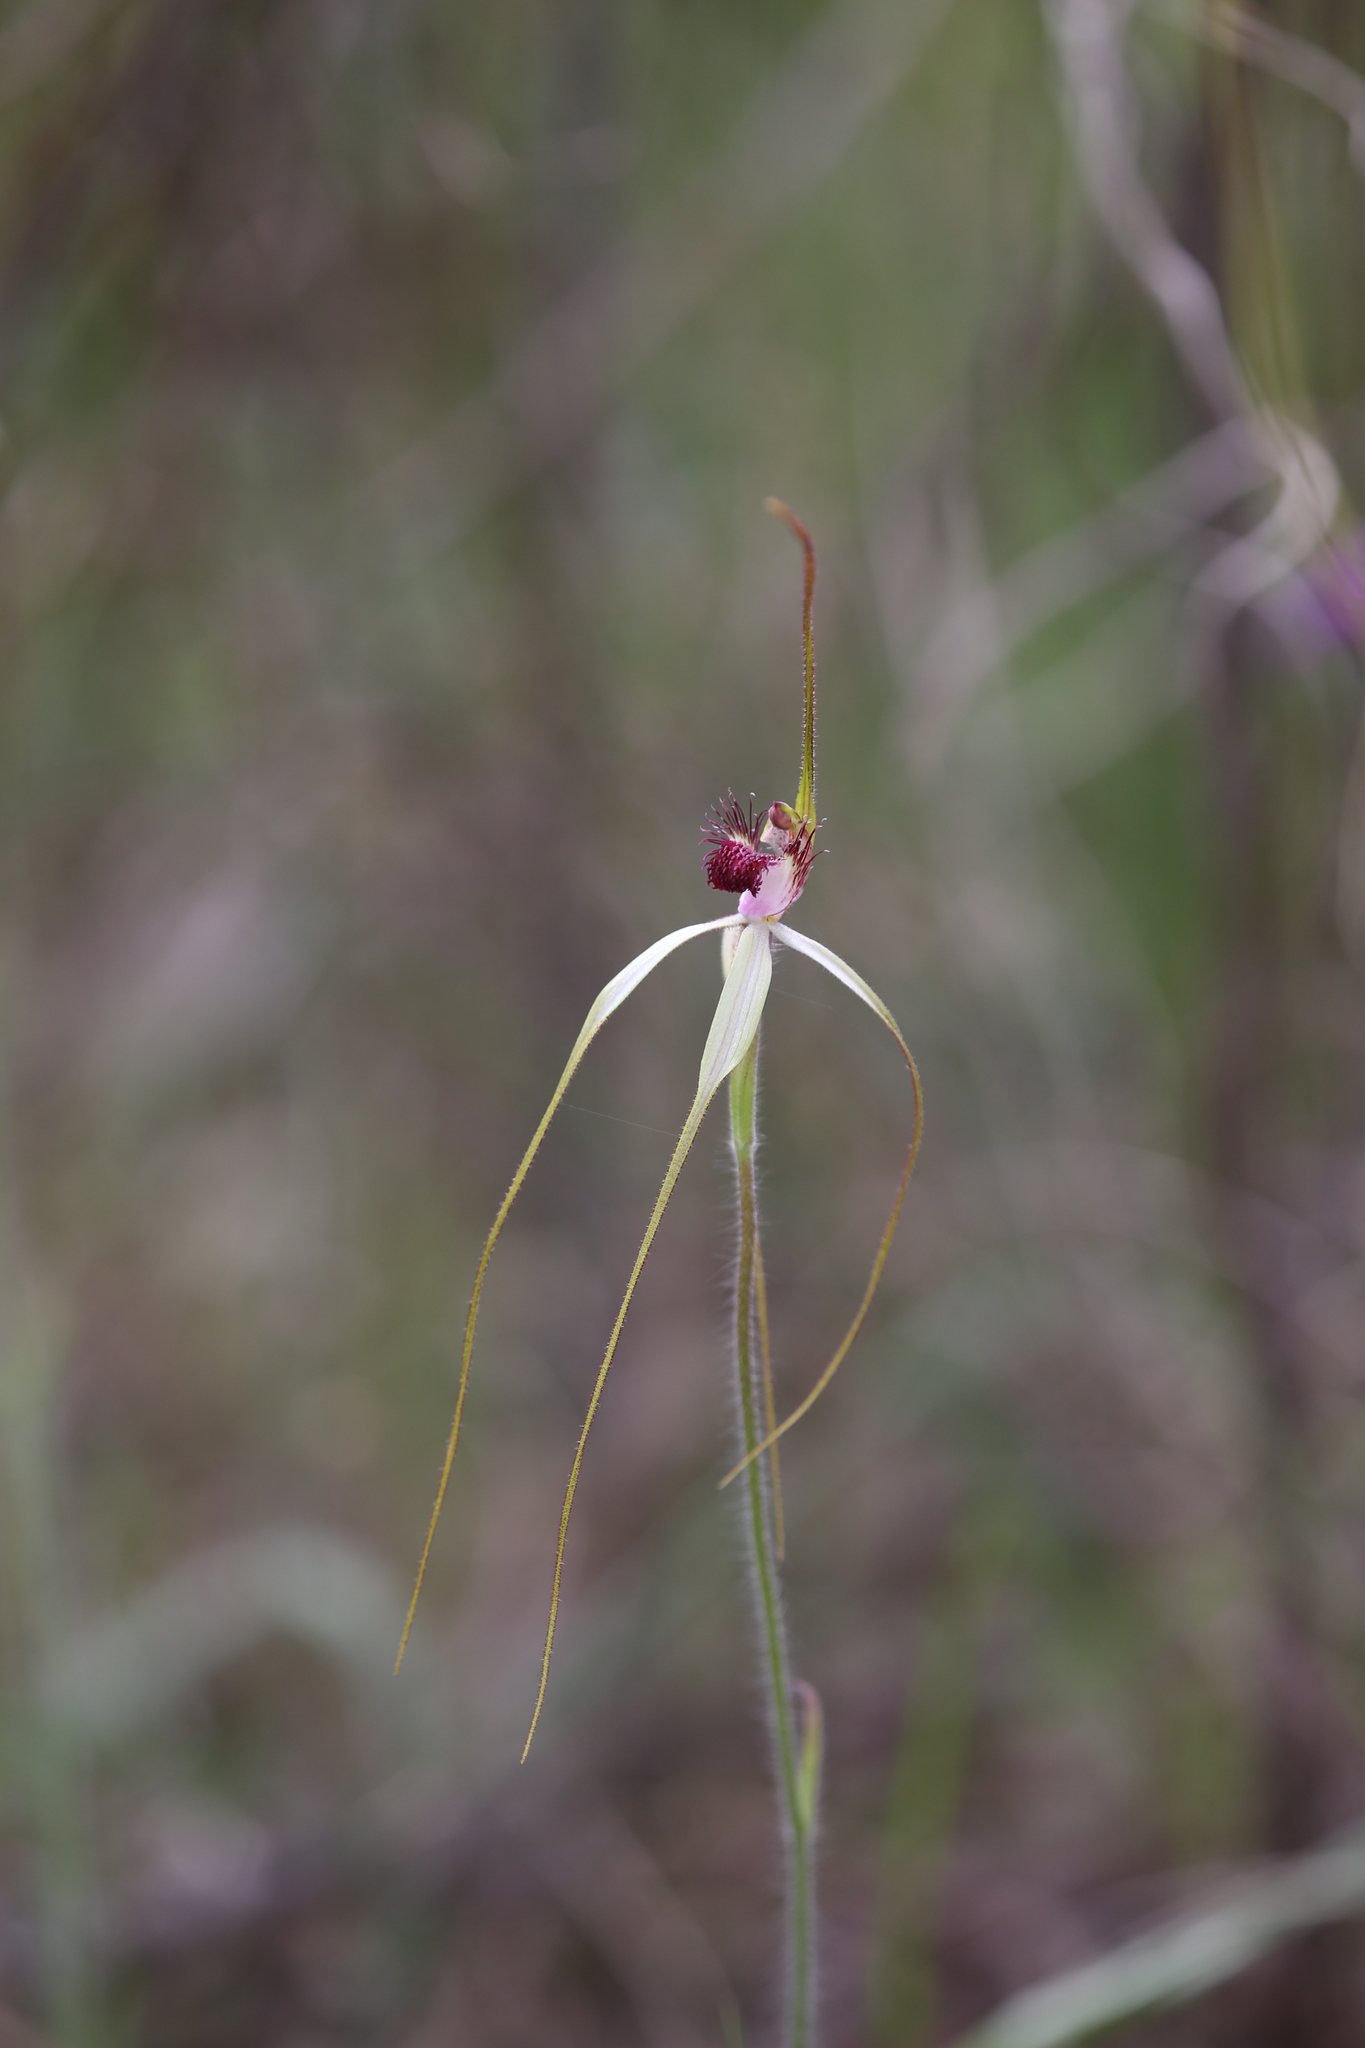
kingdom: Plantae
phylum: Tracheophyta
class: Liliopsida
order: Asparagales
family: Orchidaceae
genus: Caladenia
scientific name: Caladenia lorea
